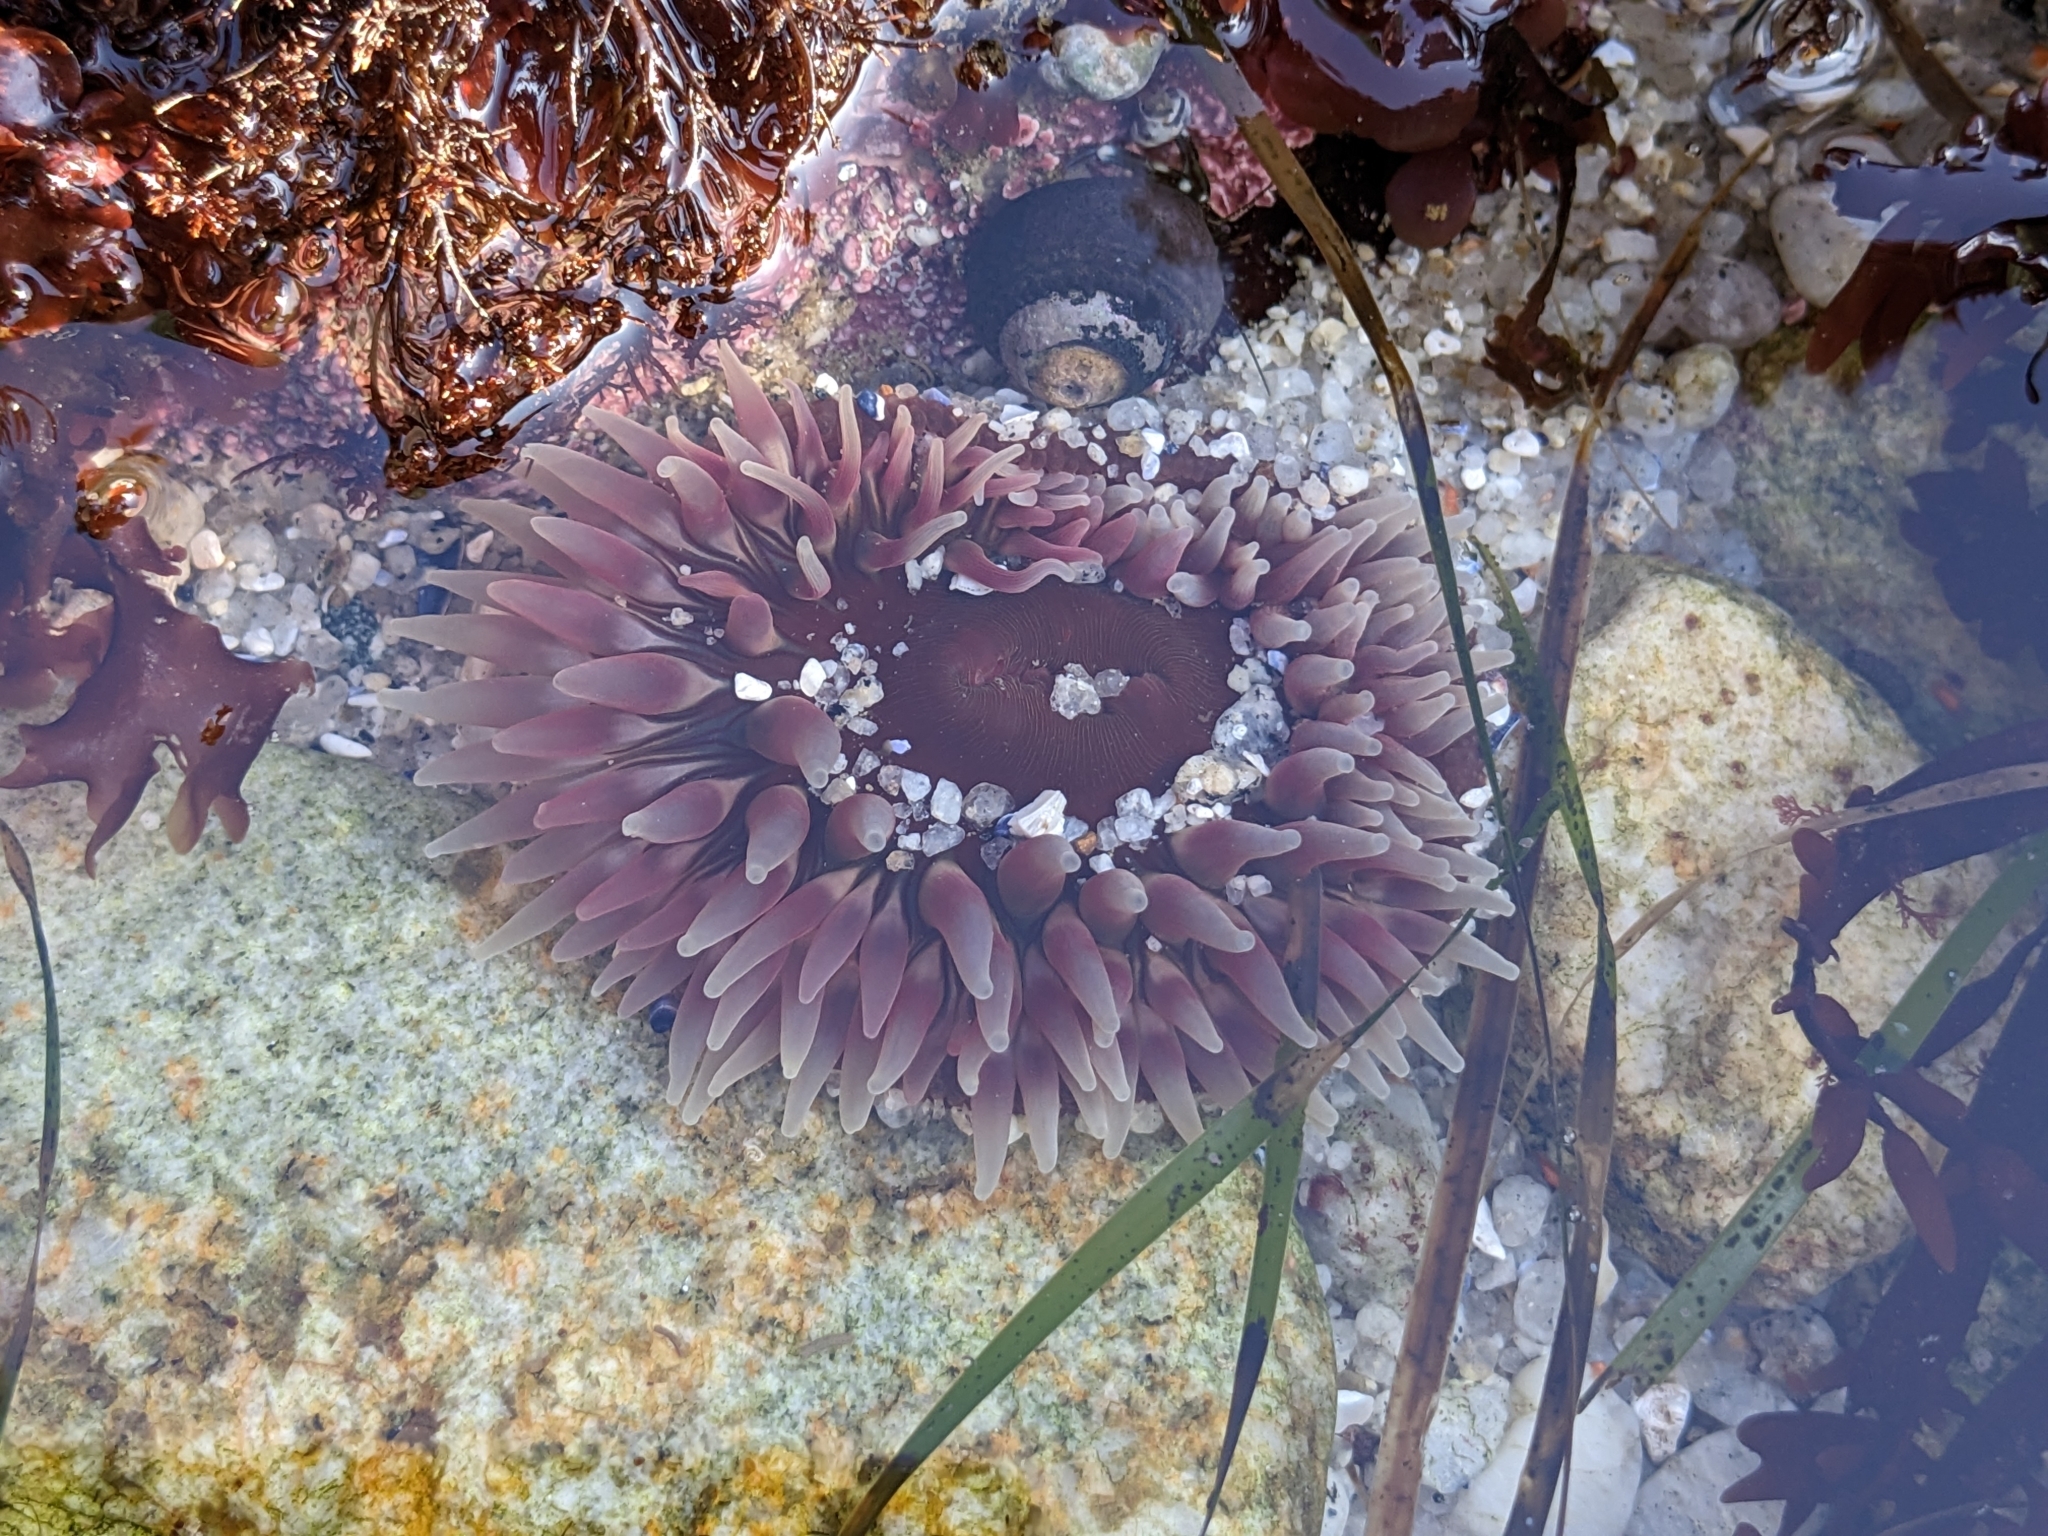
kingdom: Animalia
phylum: Cnidaria
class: Anthozoa
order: Actiniaria
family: Actiniidae
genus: Urticina
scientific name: Urticina clandestina
